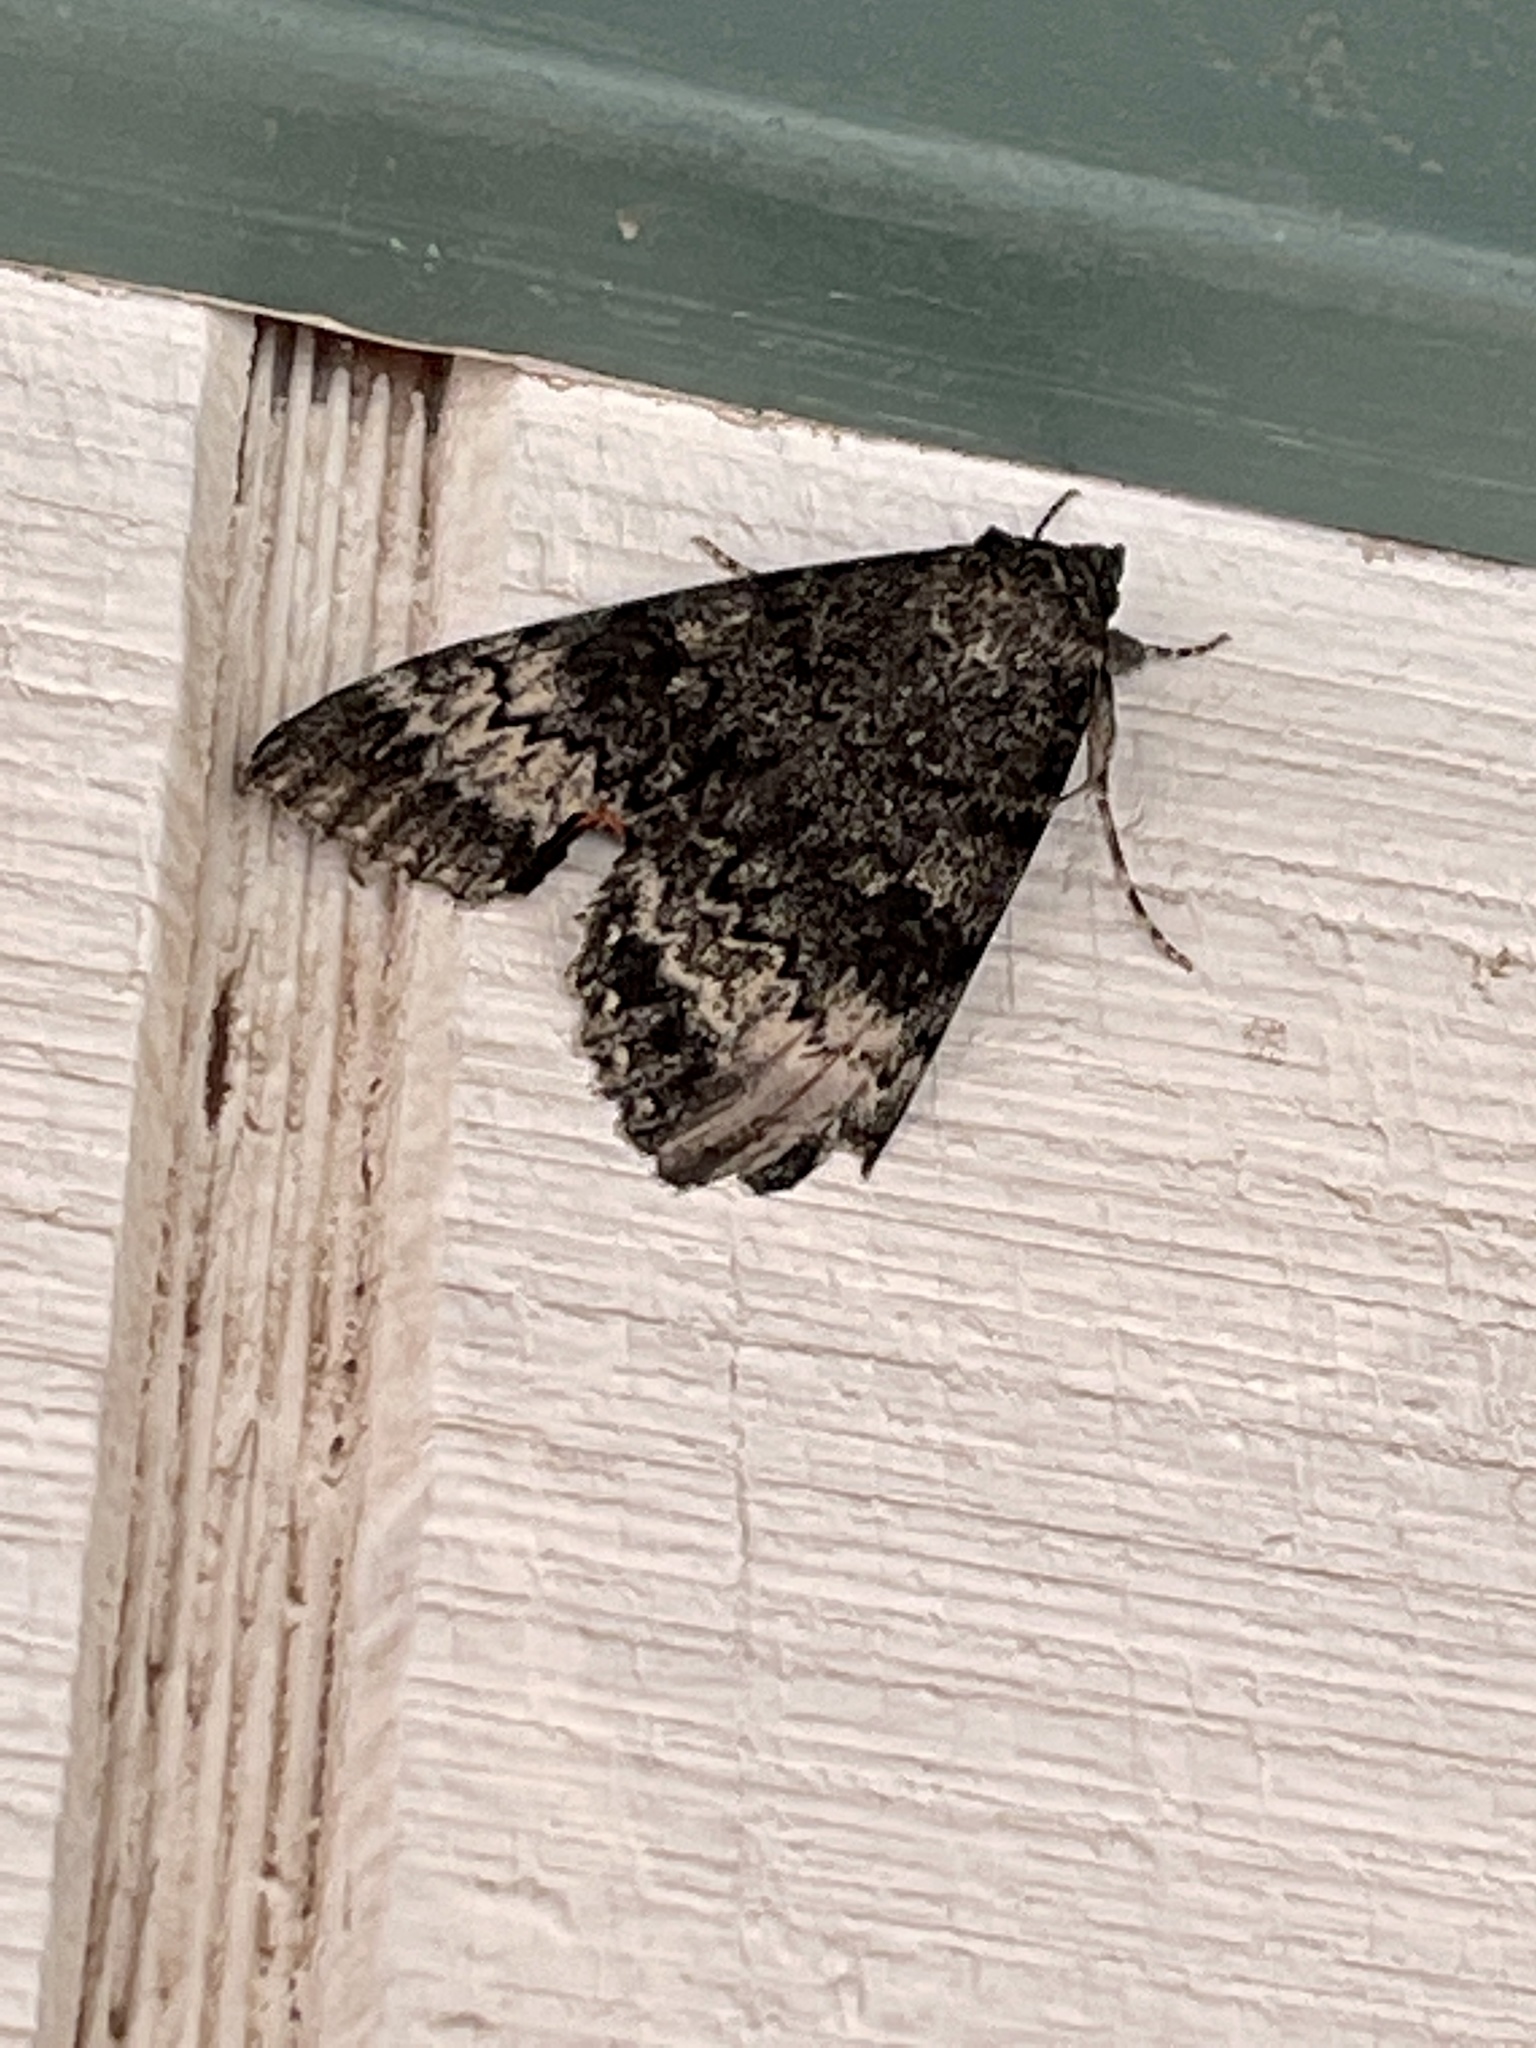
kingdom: Animalia
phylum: Arthropoda
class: Insecta
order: Lepidoptera
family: Erebidae
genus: Catocala
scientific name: Catocala grotiana
